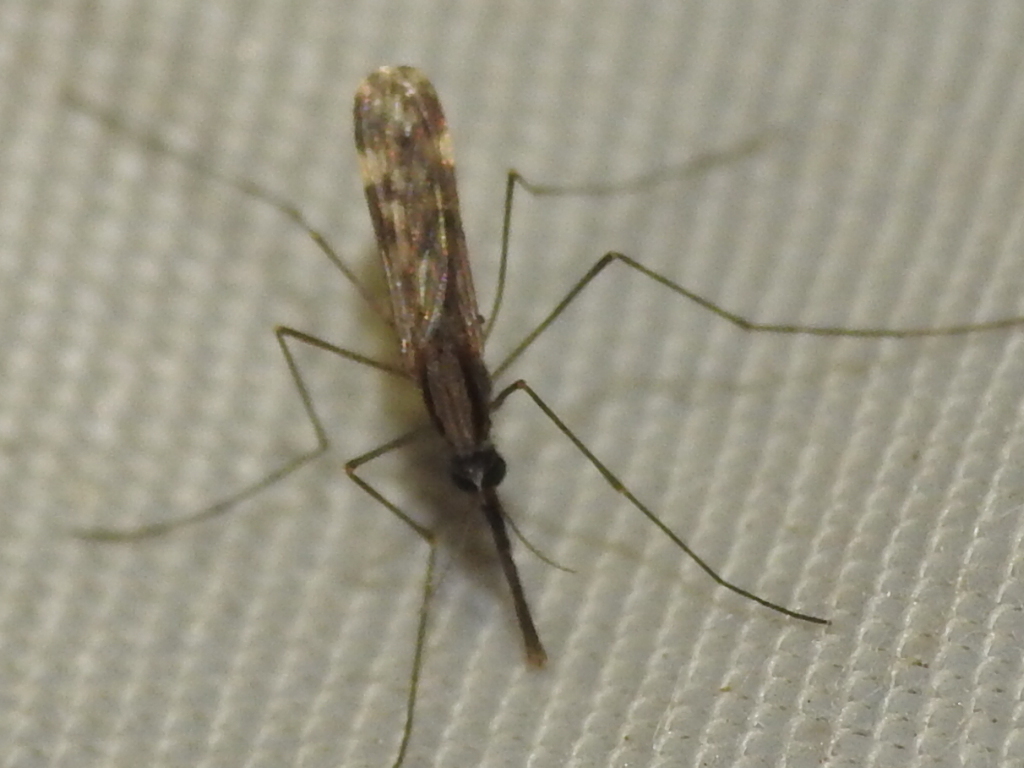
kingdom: Animalia
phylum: Arthropoda
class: Insecta
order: Diptera
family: Culicidae
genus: Anopheles
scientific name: Anopheles punctipennis
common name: Woodland malaria mosquito
